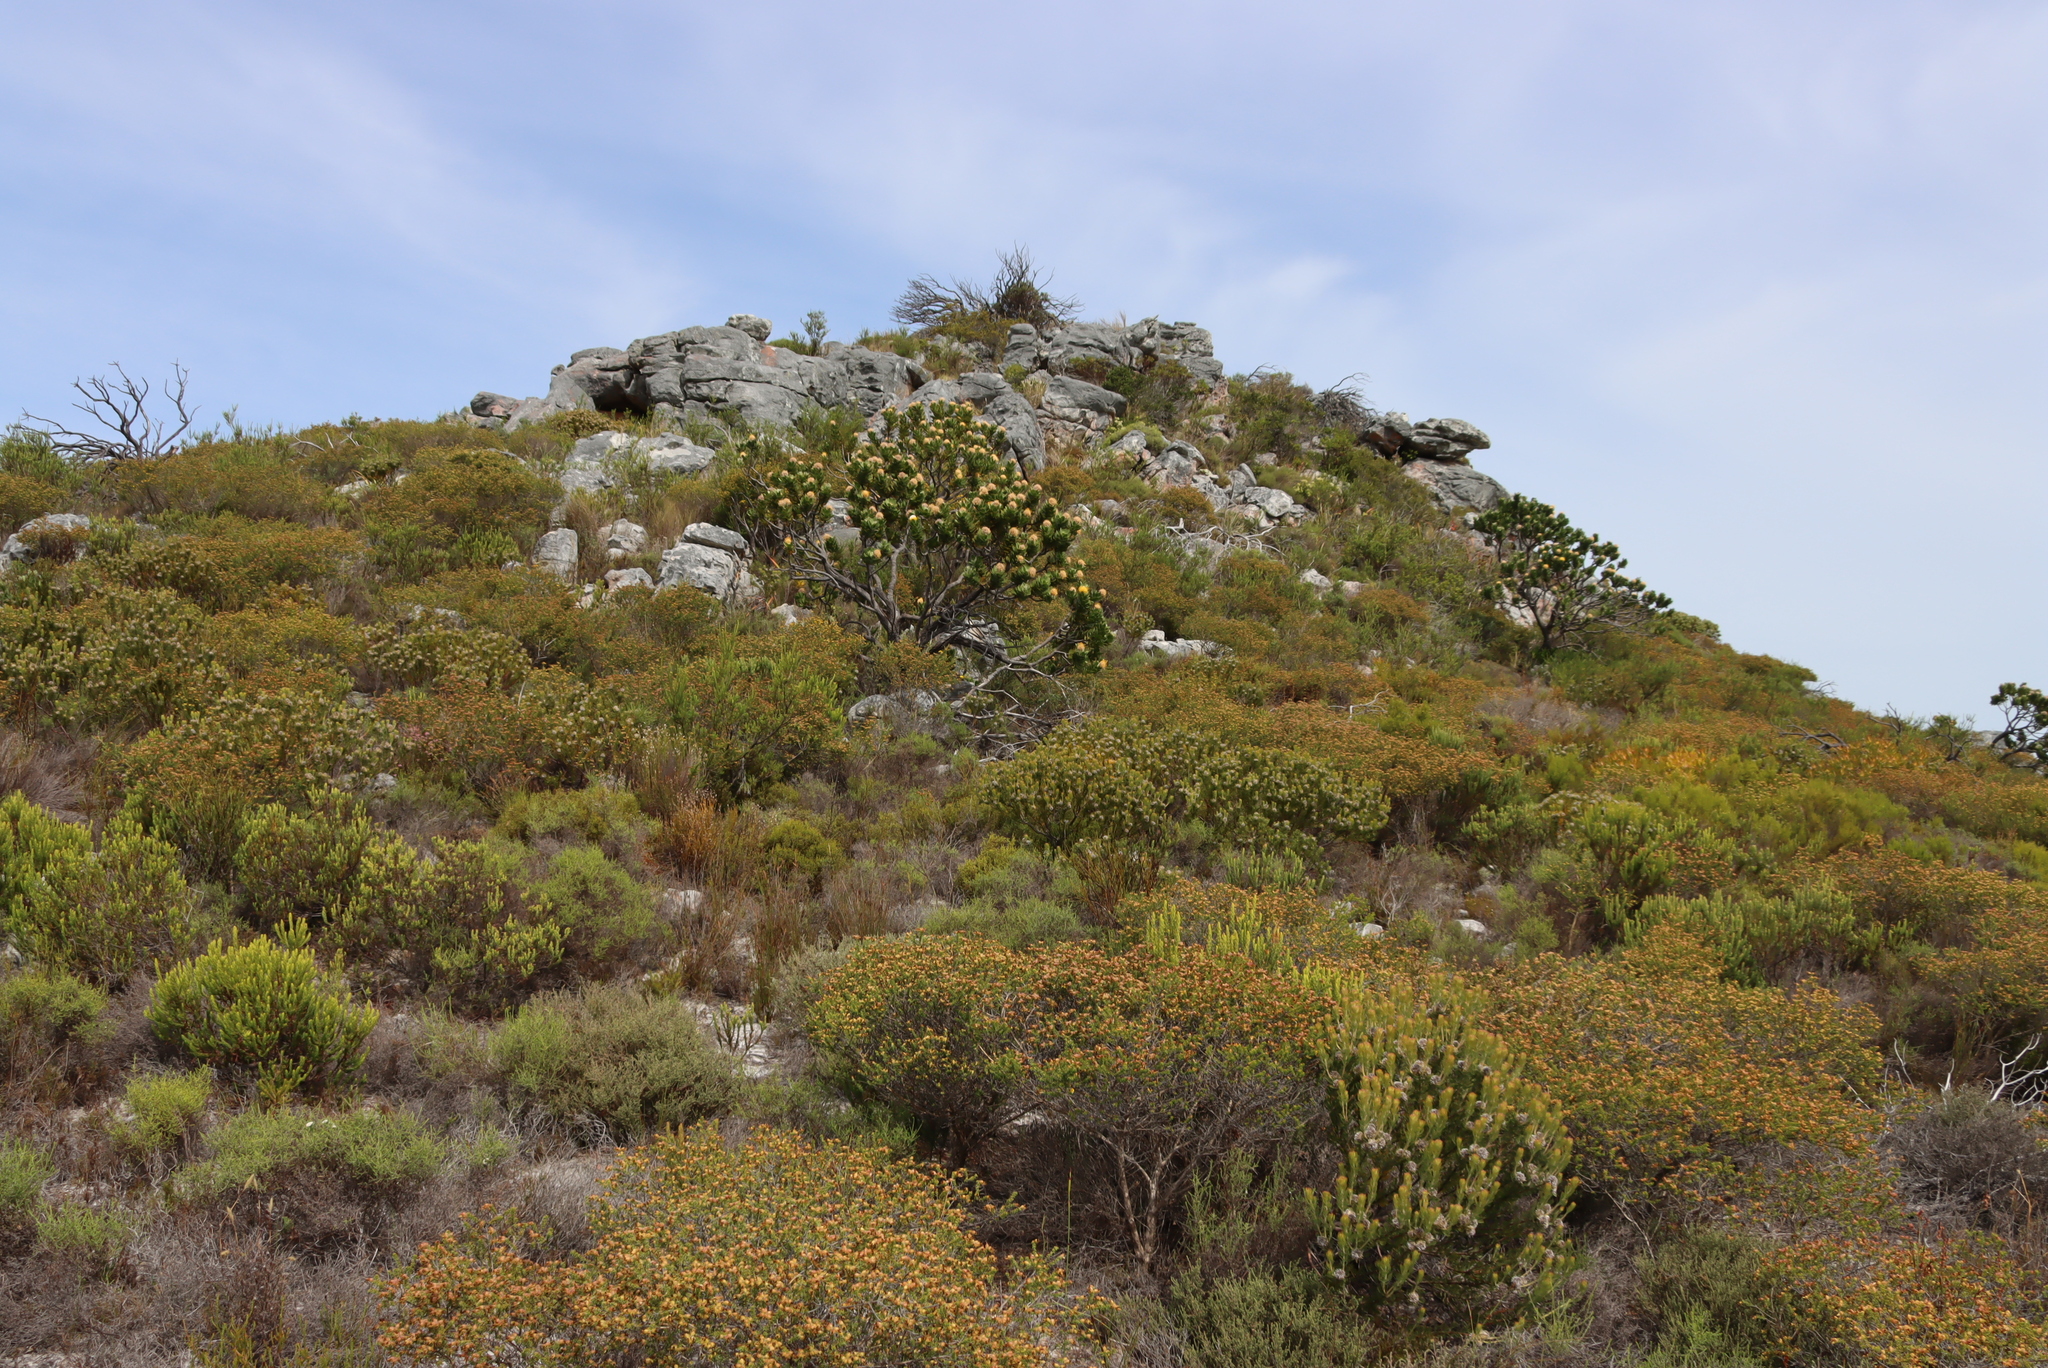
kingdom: Plantae
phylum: Tracheophyta
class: Magnoliopsida
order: Fabales
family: Fabaceae
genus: Aspalathus
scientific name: Aspalathus capensis
